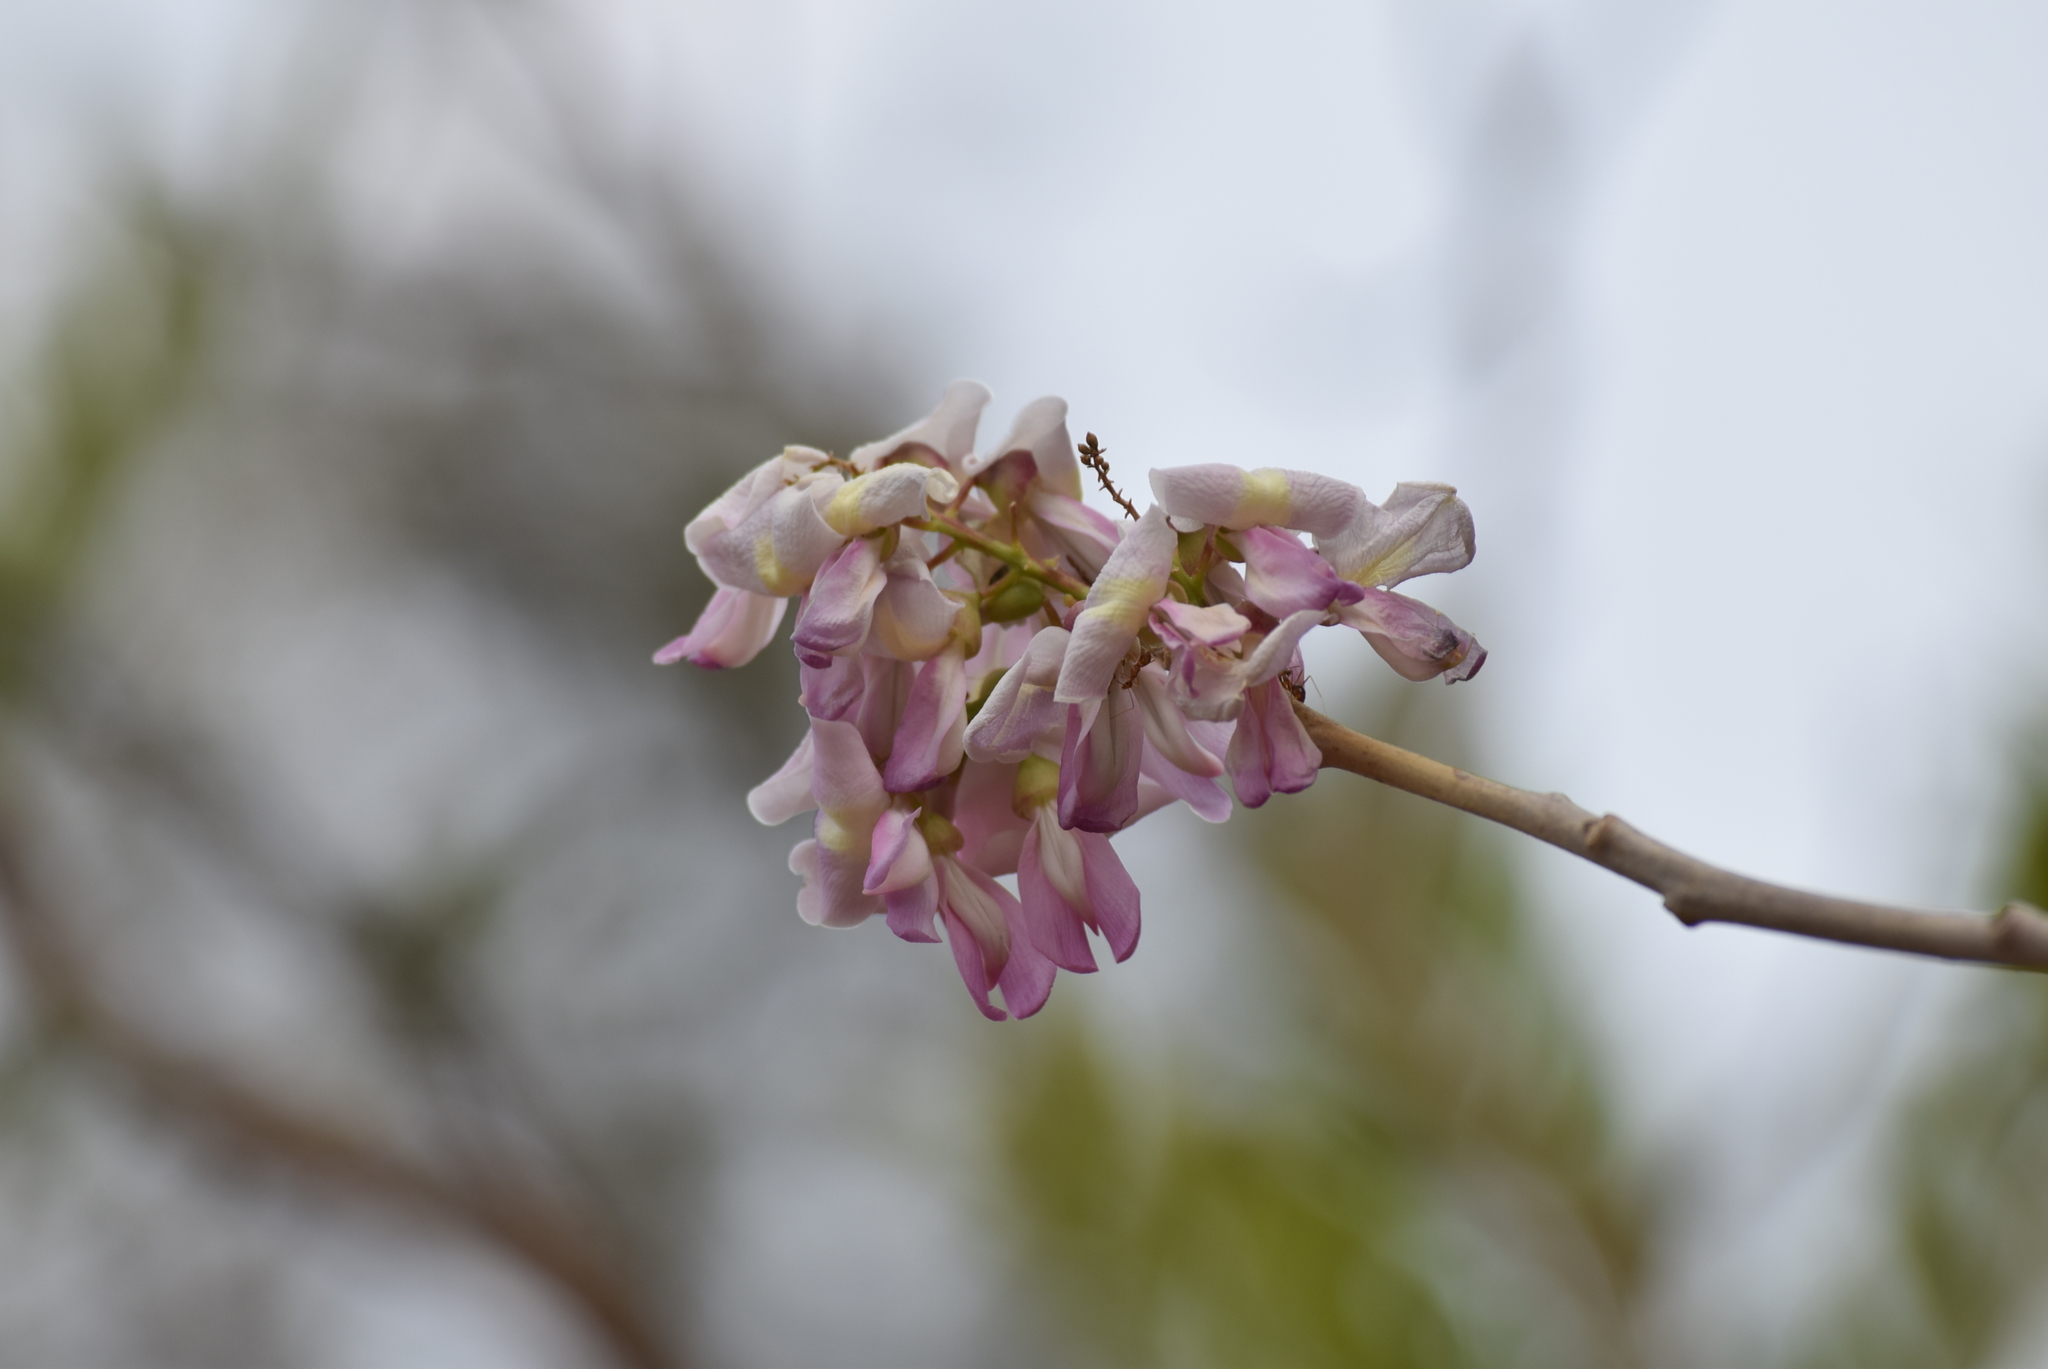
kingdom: Plantae
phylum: Tracheophyta
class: Magnoliopsida
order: Fabales
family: Fabaceae
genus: Gliricidia
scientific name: Gliricidia sepium
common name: Quickstick
